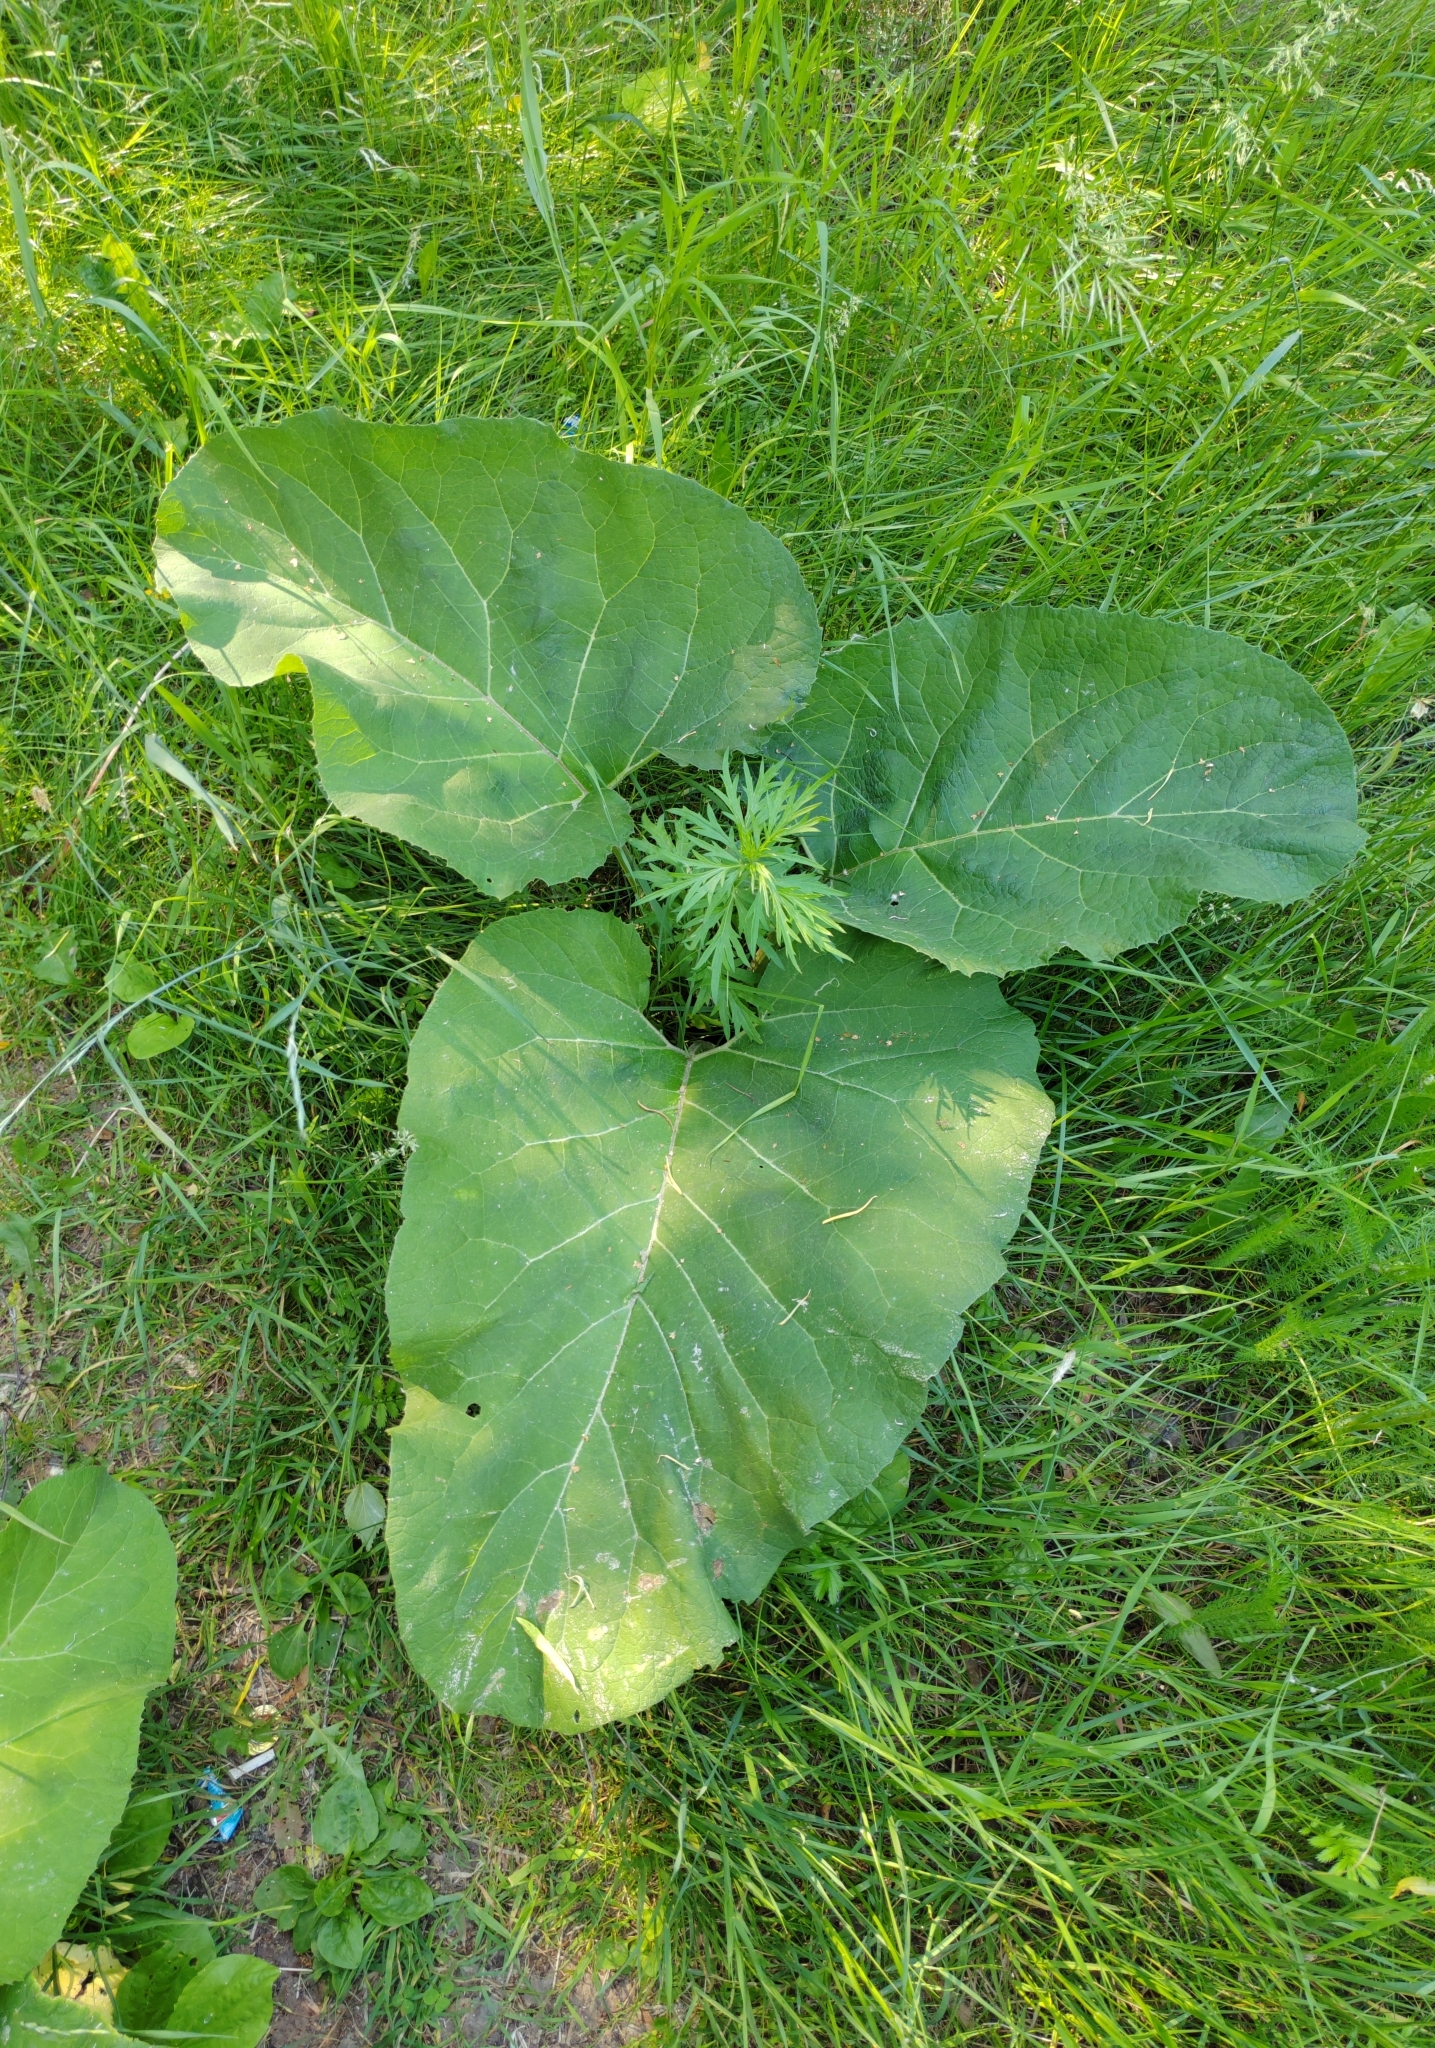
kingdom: Plantae
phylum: Tracheophyta
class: Magnoliopsida
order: Asterales
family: Asteraceae
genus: Arctium
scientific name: Arctium tomentosum
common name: Woolly burdock
